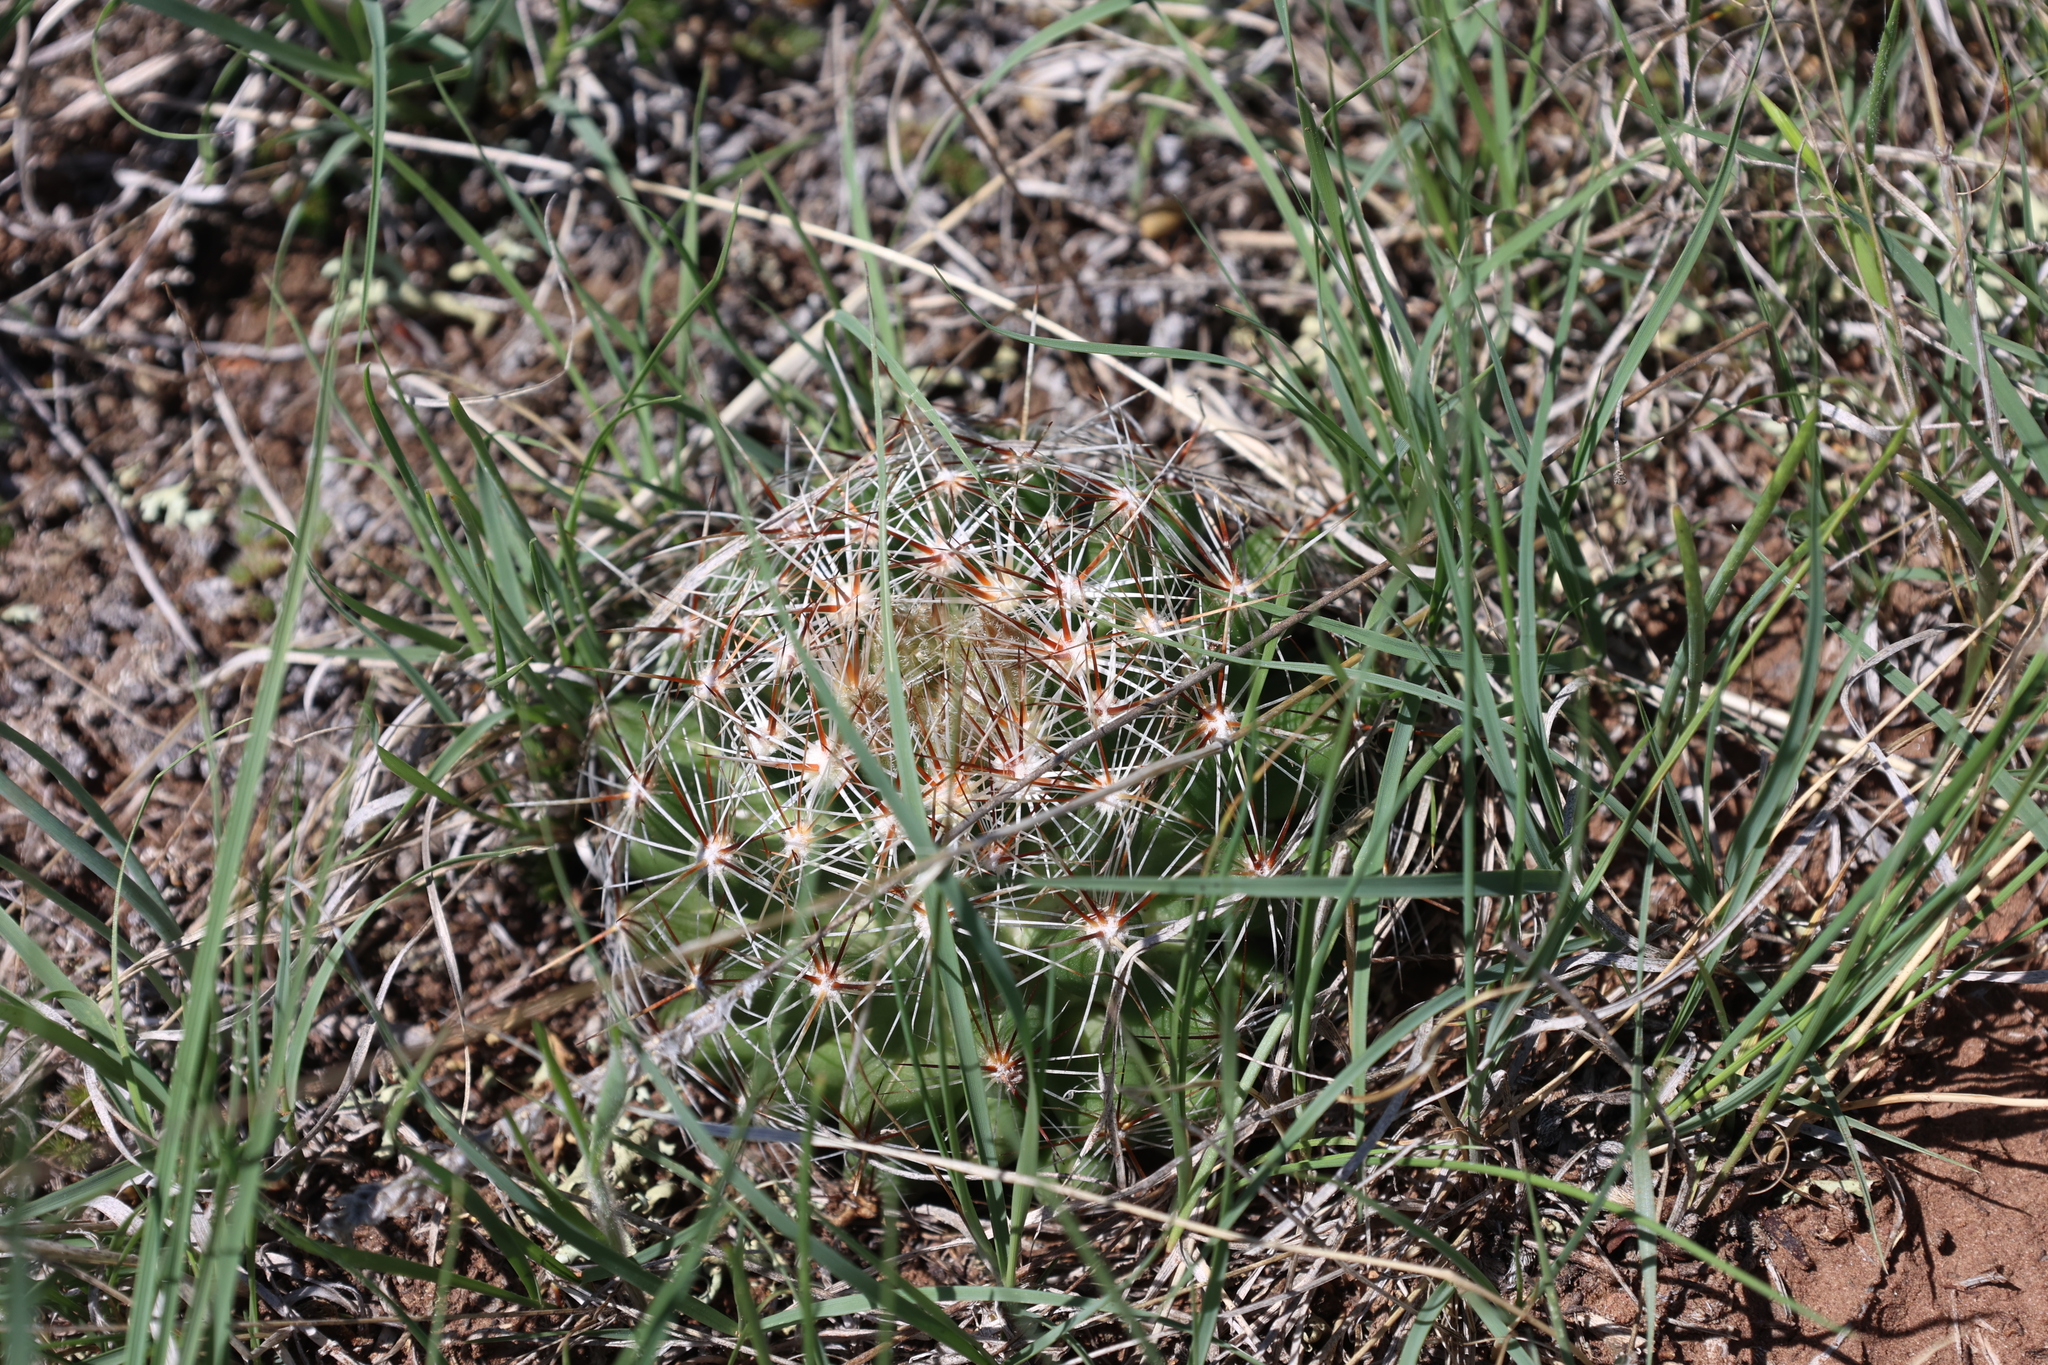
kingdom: Plantae
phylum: Tracheophyta
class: Magnoliopsida
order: Caryophyllales
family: Cactaceae
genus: Pelecyphora
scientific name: Pelecyphora vivipara
